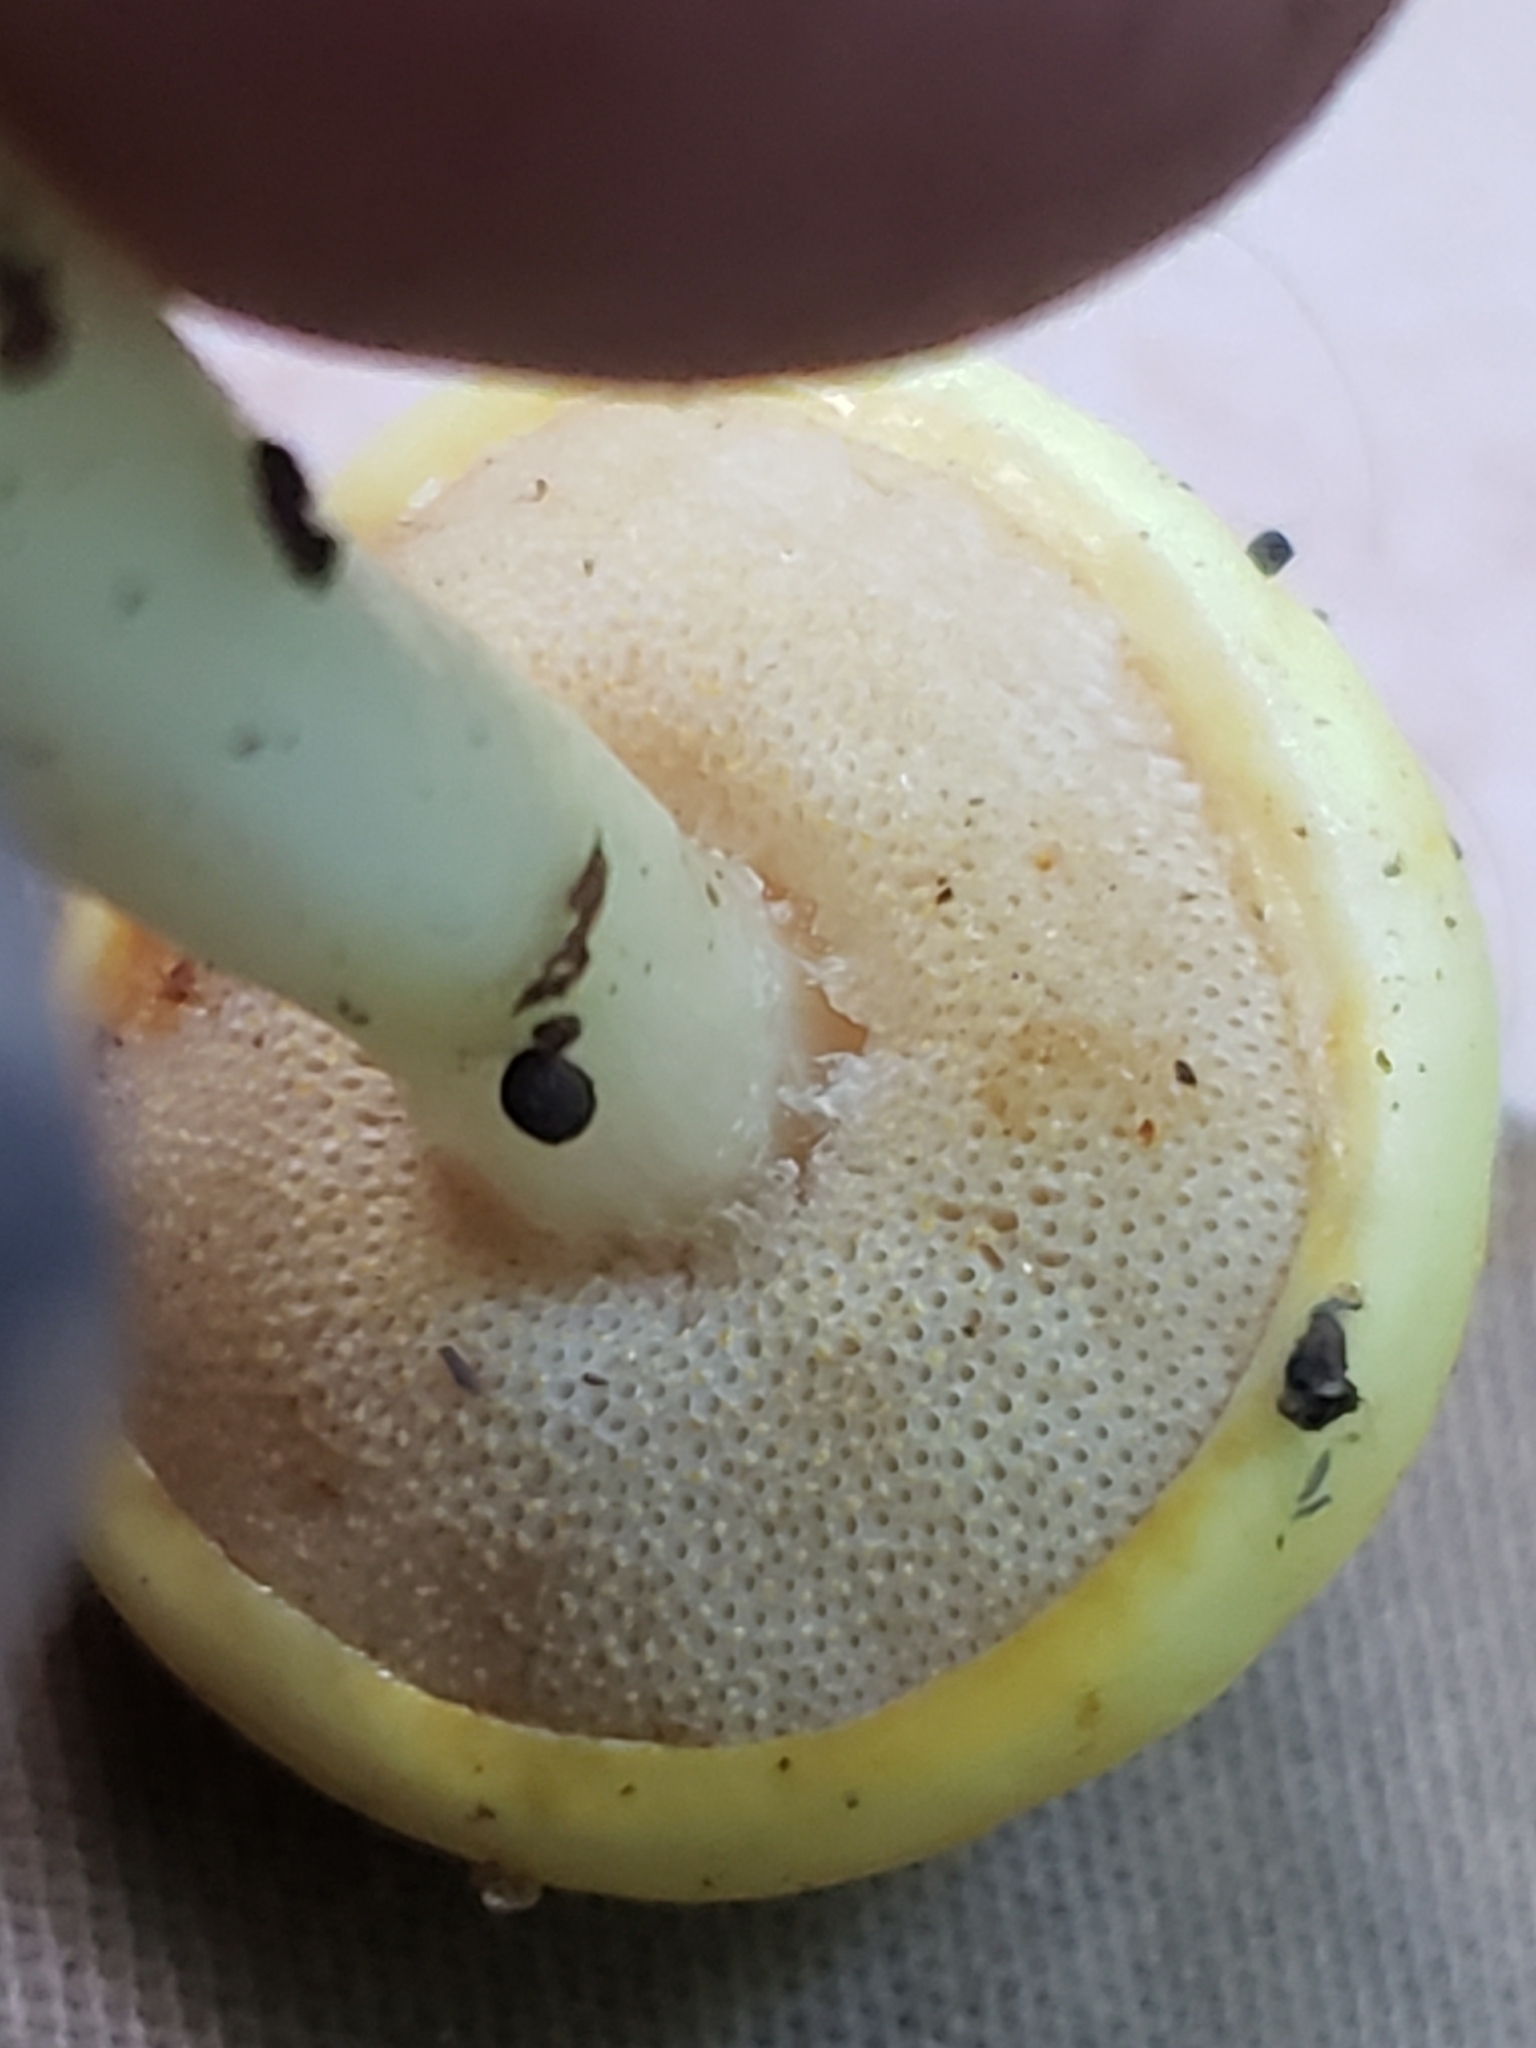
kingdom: Fungi
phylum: Basidiomycota
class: Agaricomycetes
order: Boletales
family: Boletaceae
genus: Pulveroboletus
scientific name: Pulveroboletus curtisii
